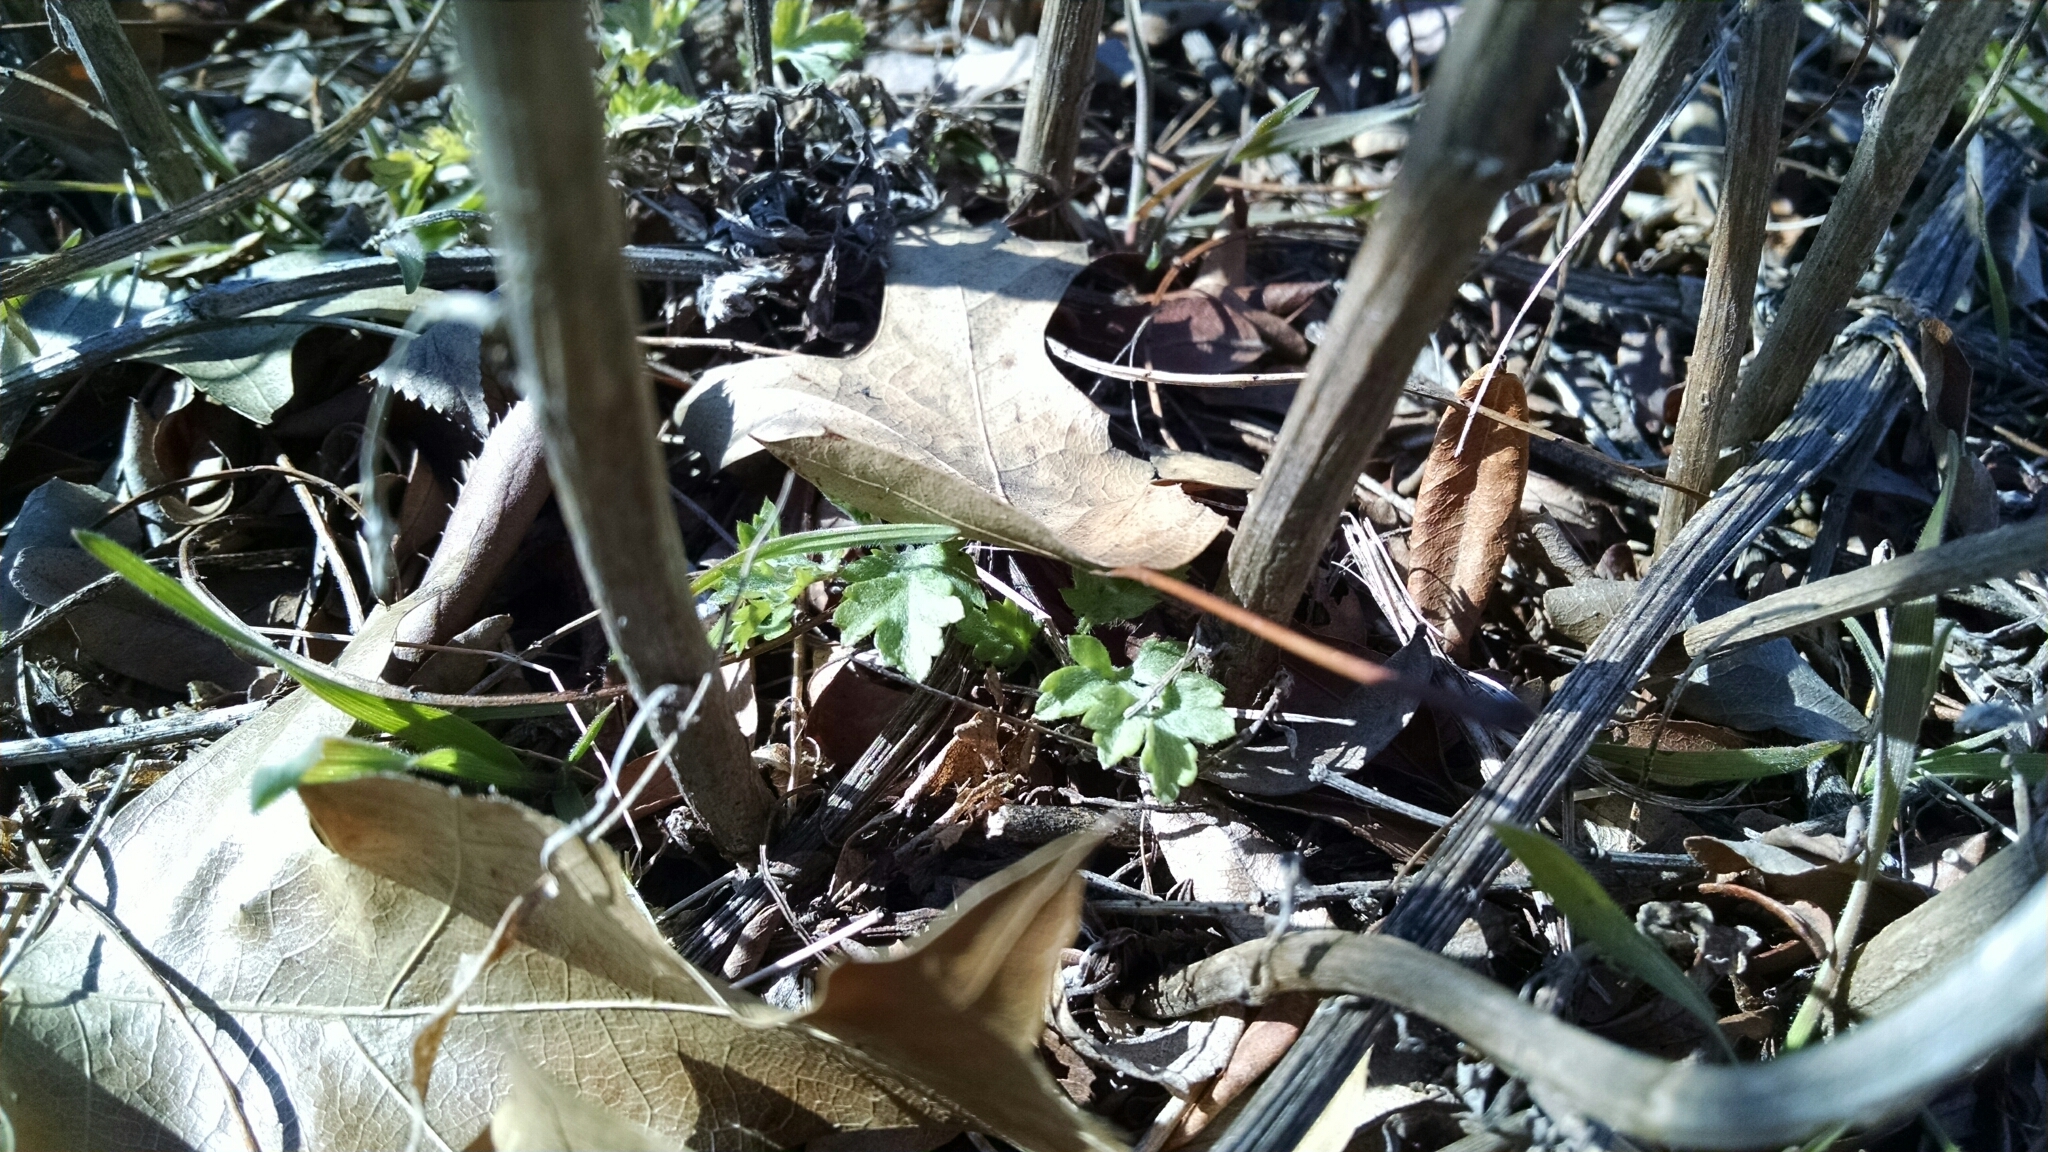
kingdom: Plantae
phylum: Tracheophyta
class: Magnoliopsida
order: Asterales
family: Asteraceae
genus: Artemisia
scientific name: Artemisia vulgaris
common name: Mugwort
